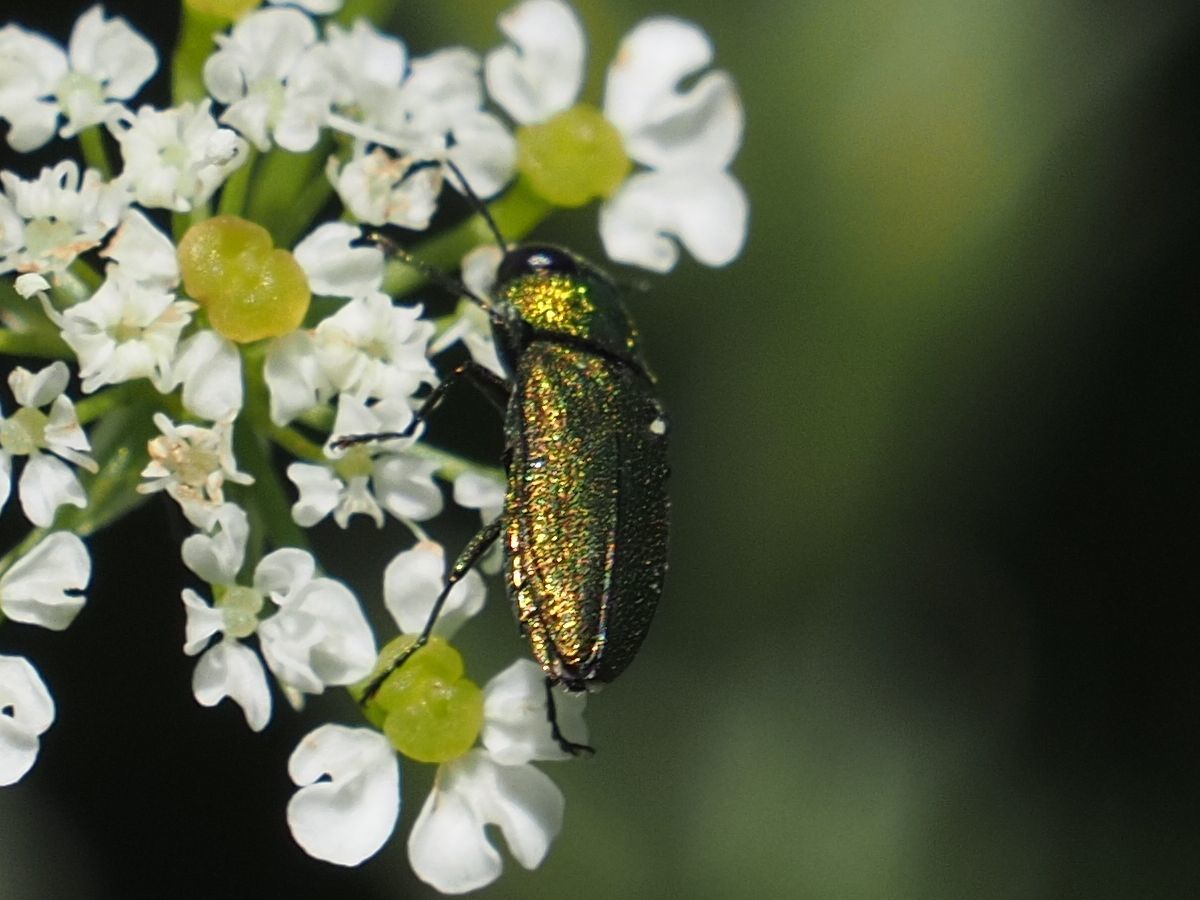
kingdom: Animalia
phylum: Arthropoda
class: Insecta
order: Coleoptera
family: Buprestidae
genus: Anthaxia
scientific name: Anthaxia nitidula
